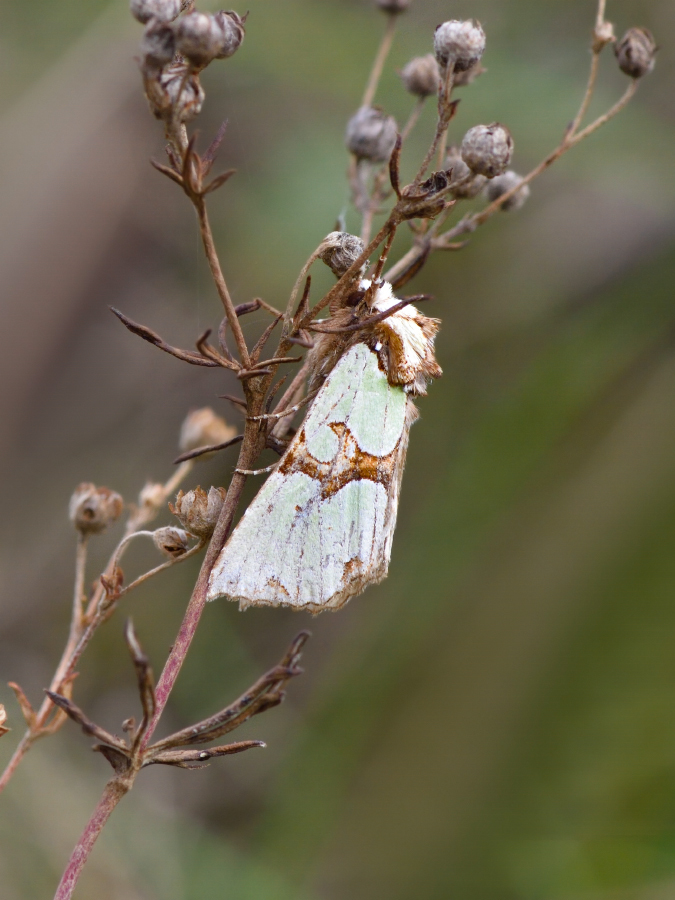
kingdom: Animalia
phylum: Arthropoda
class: Insecta
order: Lepidoptera
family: Noctuidae
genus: Staurophora
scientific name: Staurophora celsia
